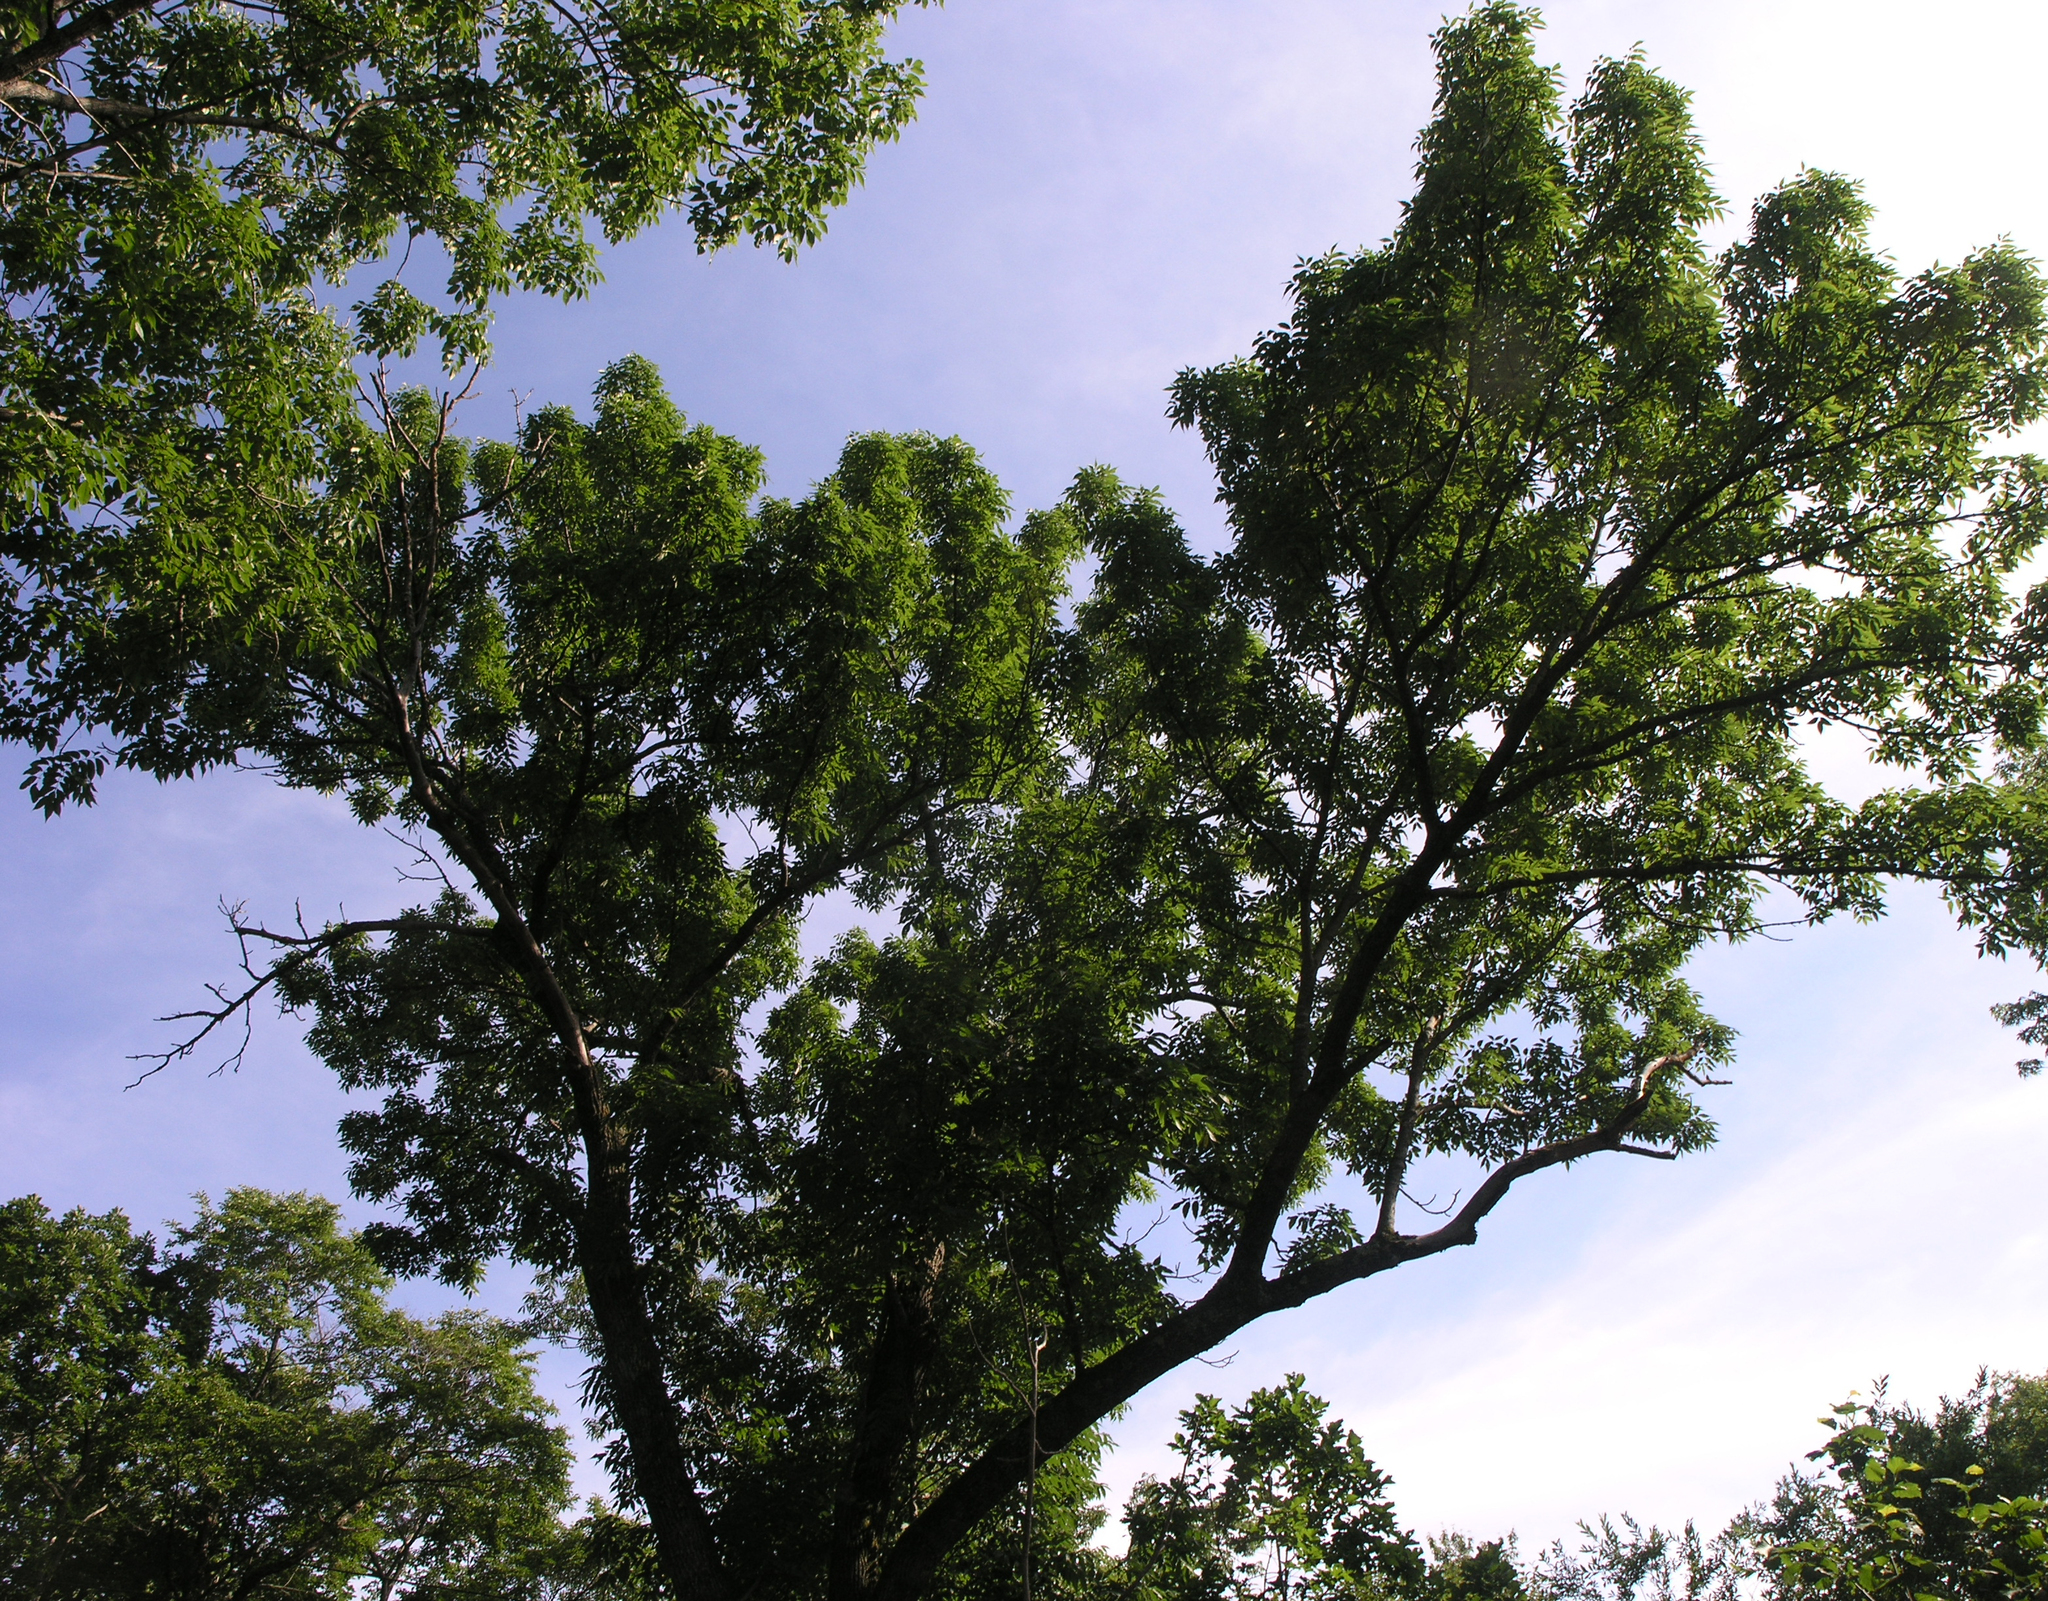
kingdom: Plantae
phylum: Tracheophyta
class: Magnoliopsida
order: Lamiales
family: Oleaceae
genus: Fraxinus
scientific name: Fraxinus mandshurica
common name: Manchurian ash
